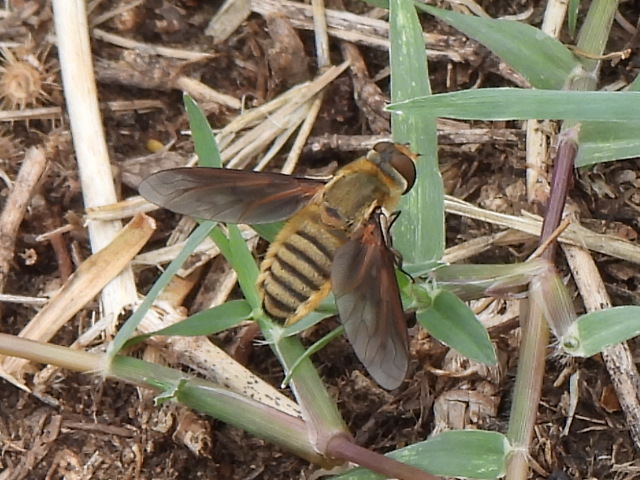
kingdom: Animalia
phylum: Arthropoda
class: Insecta
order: Diptera
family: Bombyliidae
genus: Poecilanthrax
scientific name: Poecilanthrax lucifer
